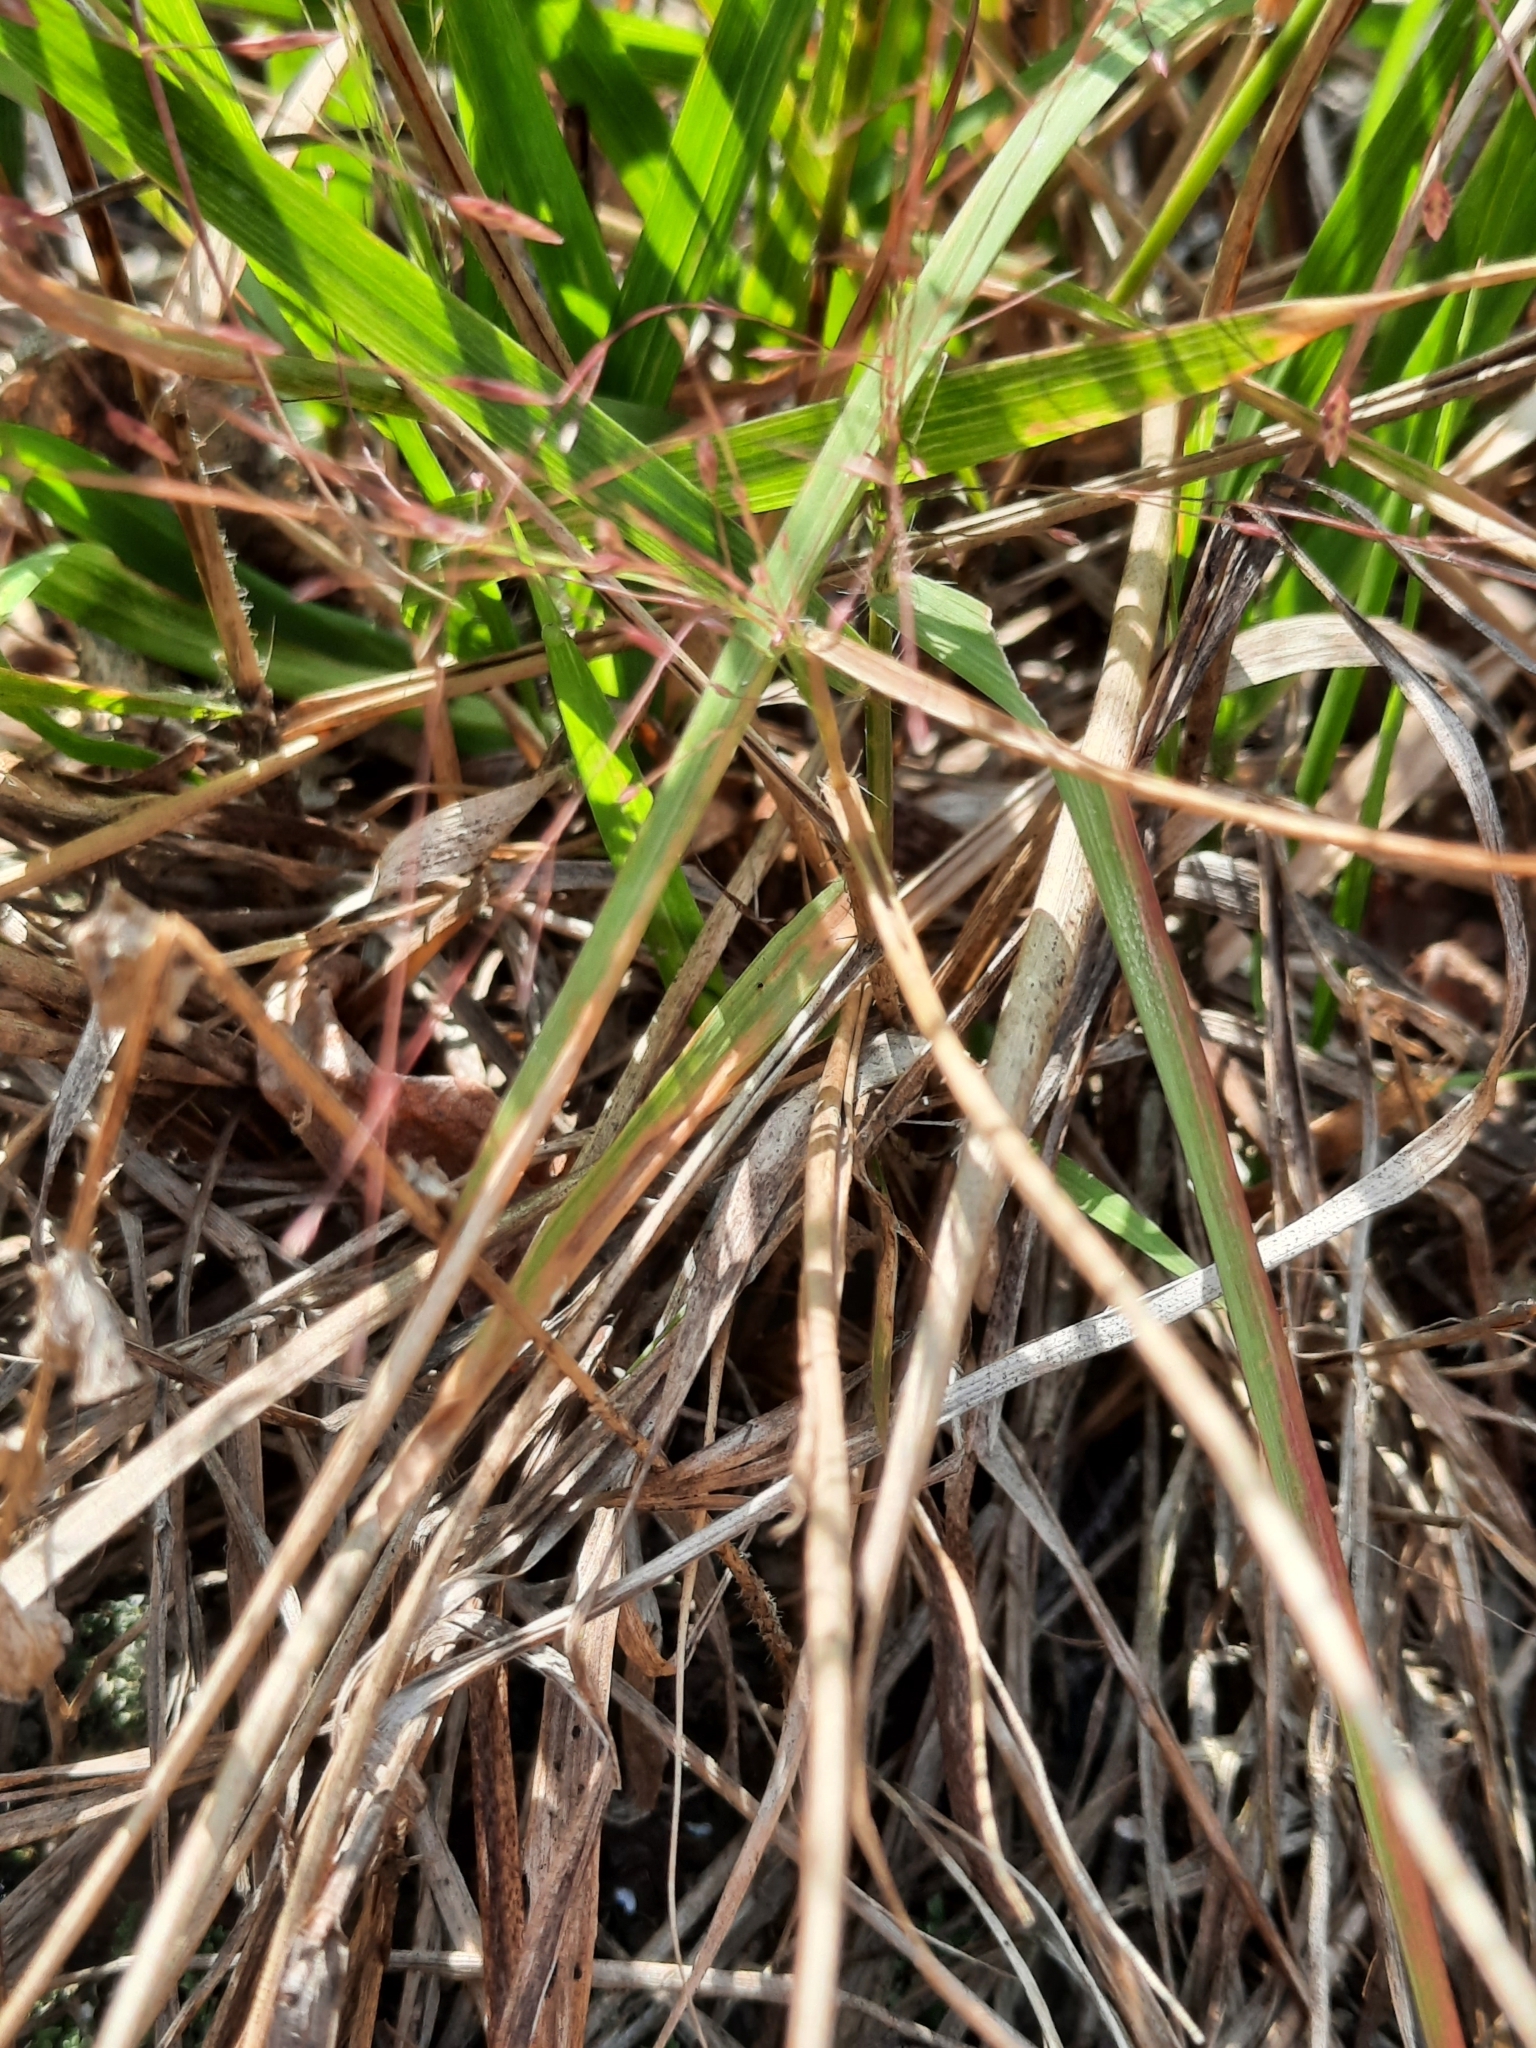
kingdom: Plantae
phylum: Tracheophyta
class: Liliopsida
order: Poales
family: Poaceae
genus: Eragrostis
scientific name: Eragrostis spectabilis
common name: Petticoat-climber
